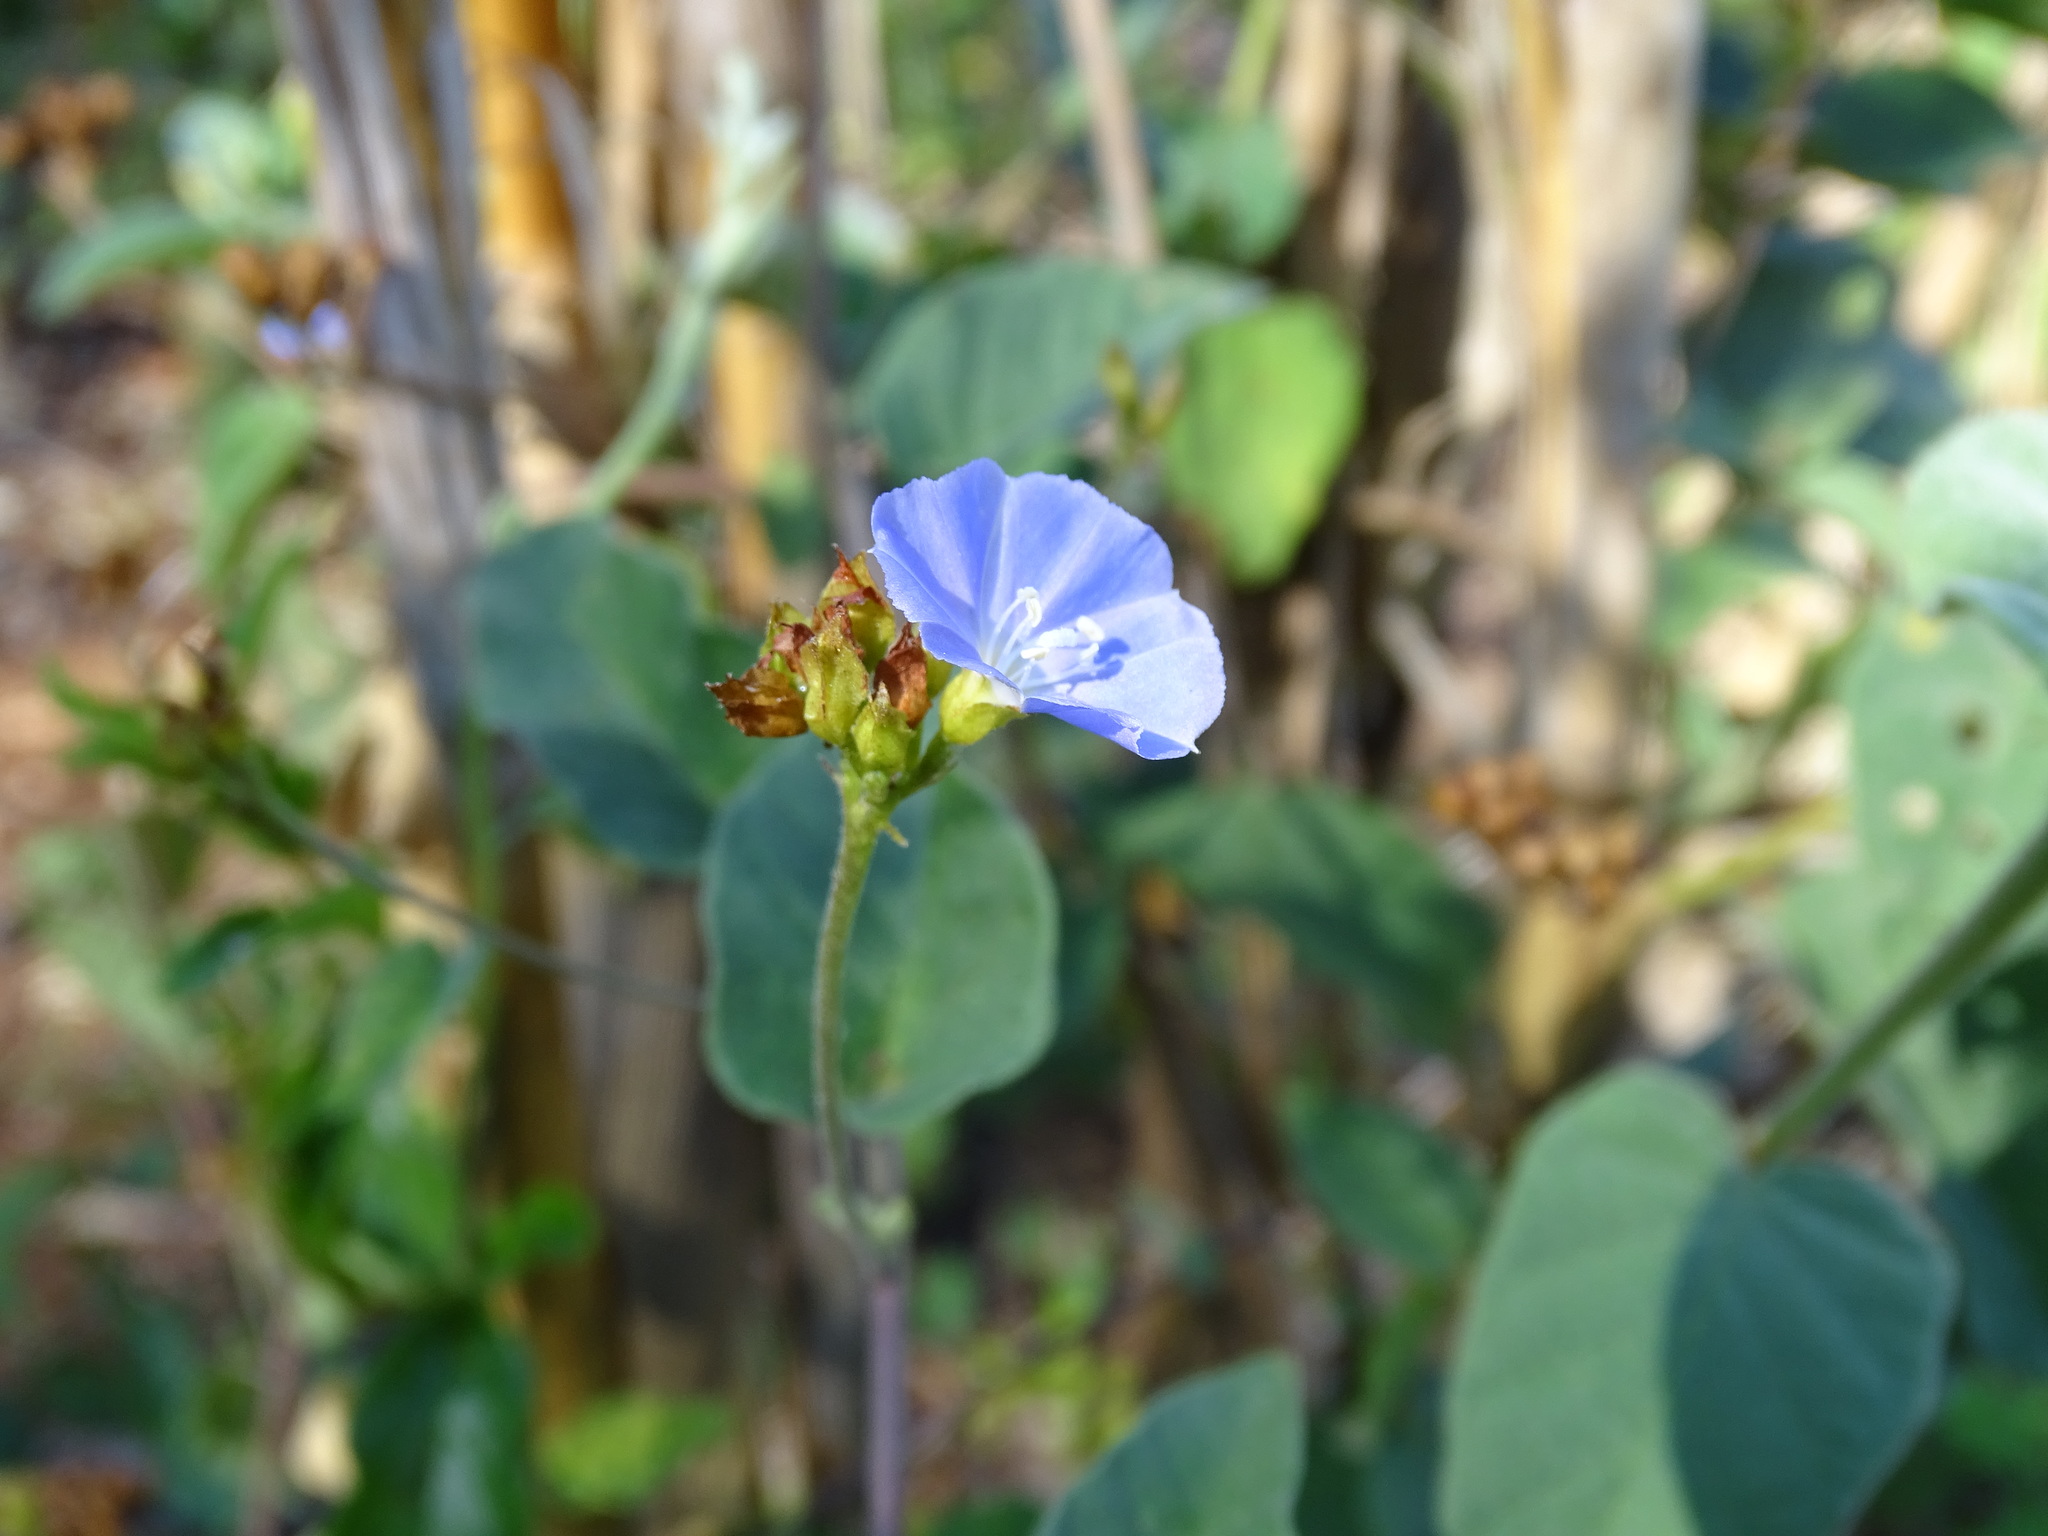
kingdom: Plantae
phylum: Tracheophyta
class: Magnoliopsida
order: Solanales
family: Convolvulaceae
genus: Jacquemontia
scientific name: Jacquemontia pentanthos
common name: Skyblue clustervine
